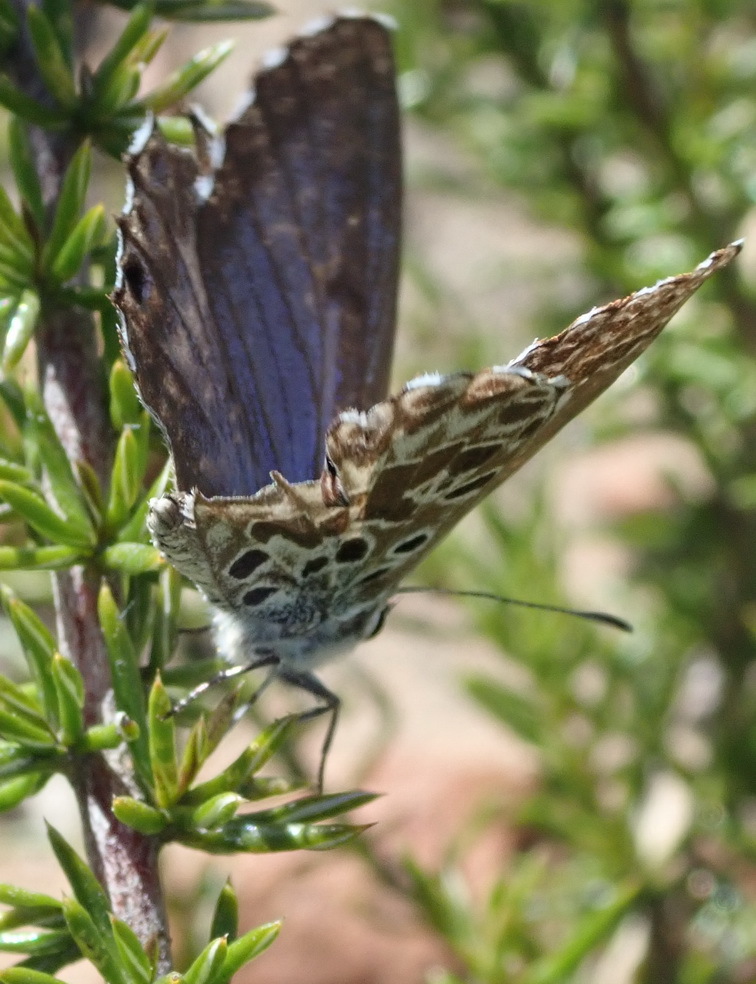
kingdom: Animalia
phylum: Arthropoda
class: Insecta
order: Lepidoptera
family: Lycaenidae
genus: Lepidochrysops
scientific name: Lepidochrysops australis
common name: Southern blue
